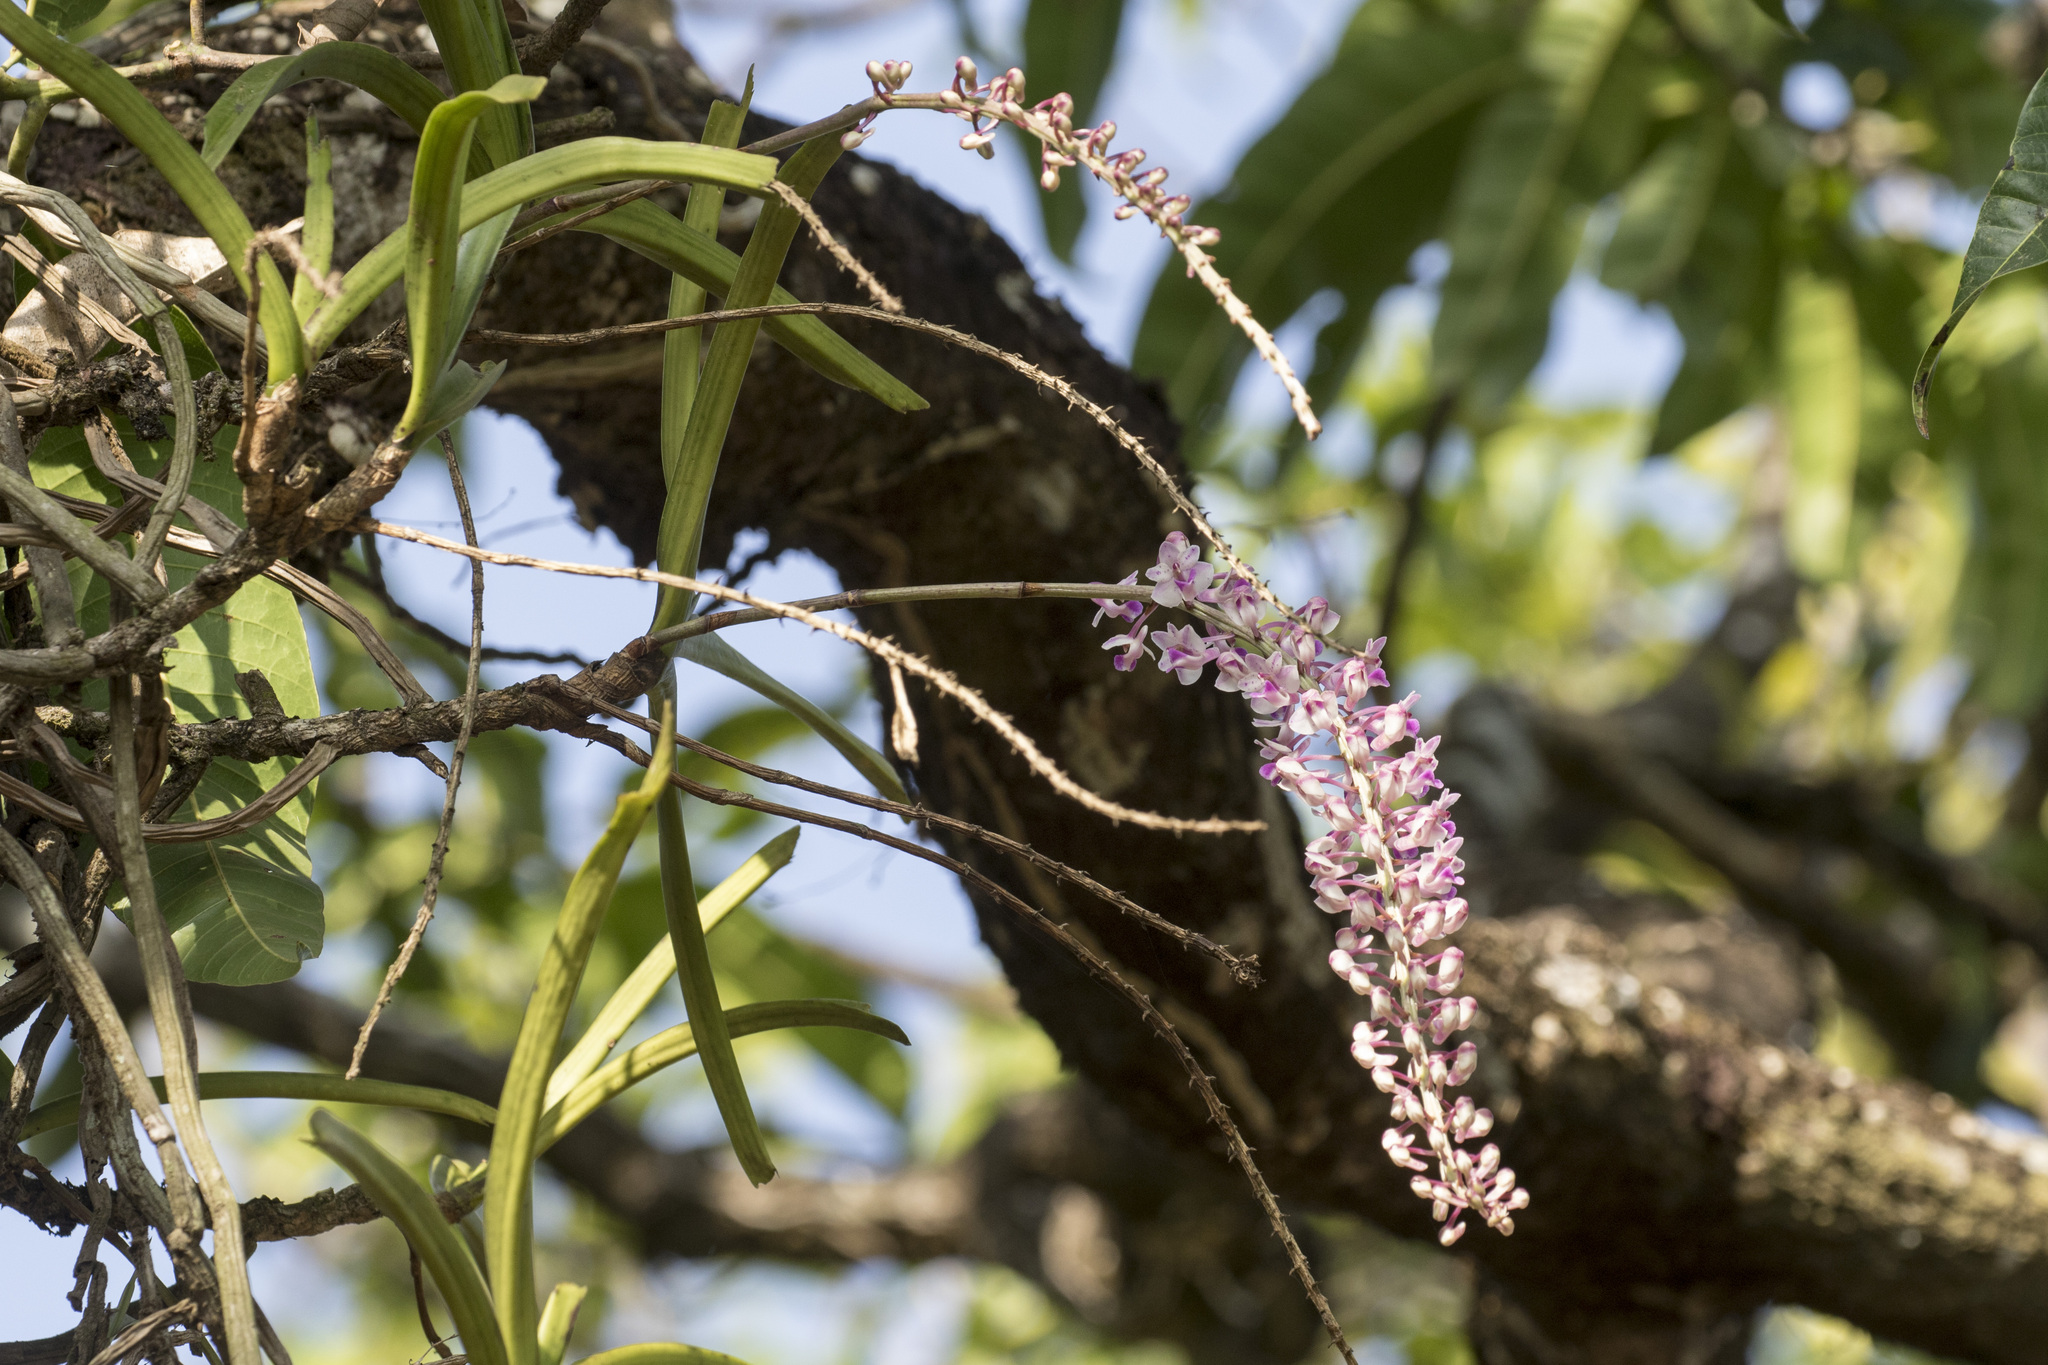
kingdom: Plantae
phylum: Tracheophyta
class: Liliopsida
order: Asparagales
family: Orchidaceae
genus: Rhynchostylis
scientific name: Rhynchostylis retusa
